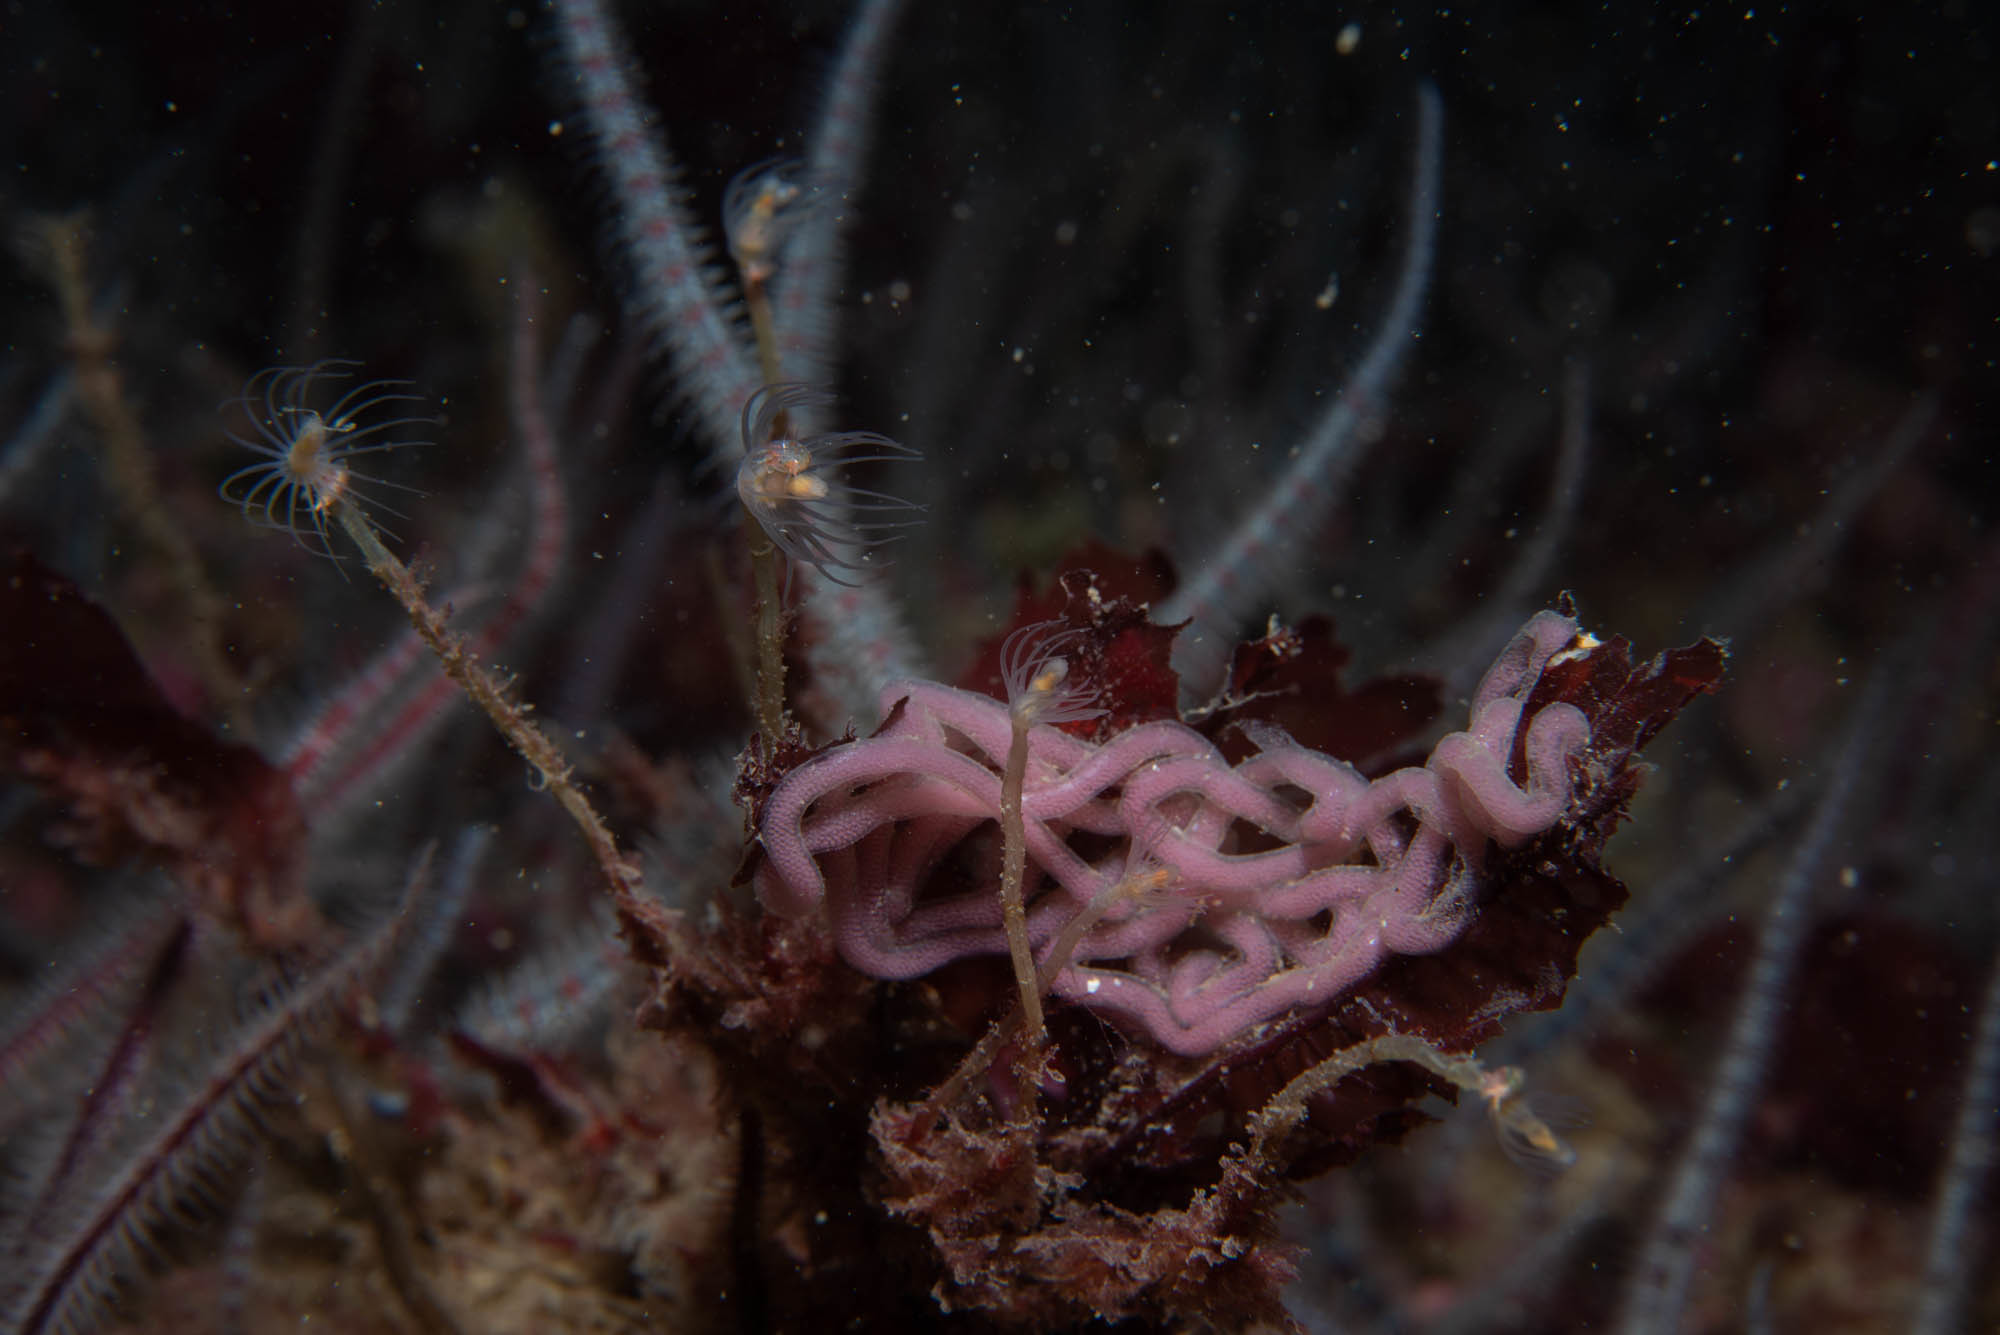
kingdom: Animalia
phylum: Cnidaria
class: Hydrozoa
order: Anthoathecata
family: Tubulariidae
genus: Tubularia
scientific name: Tubularia indivisa
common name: Oaten pipes hydroid
